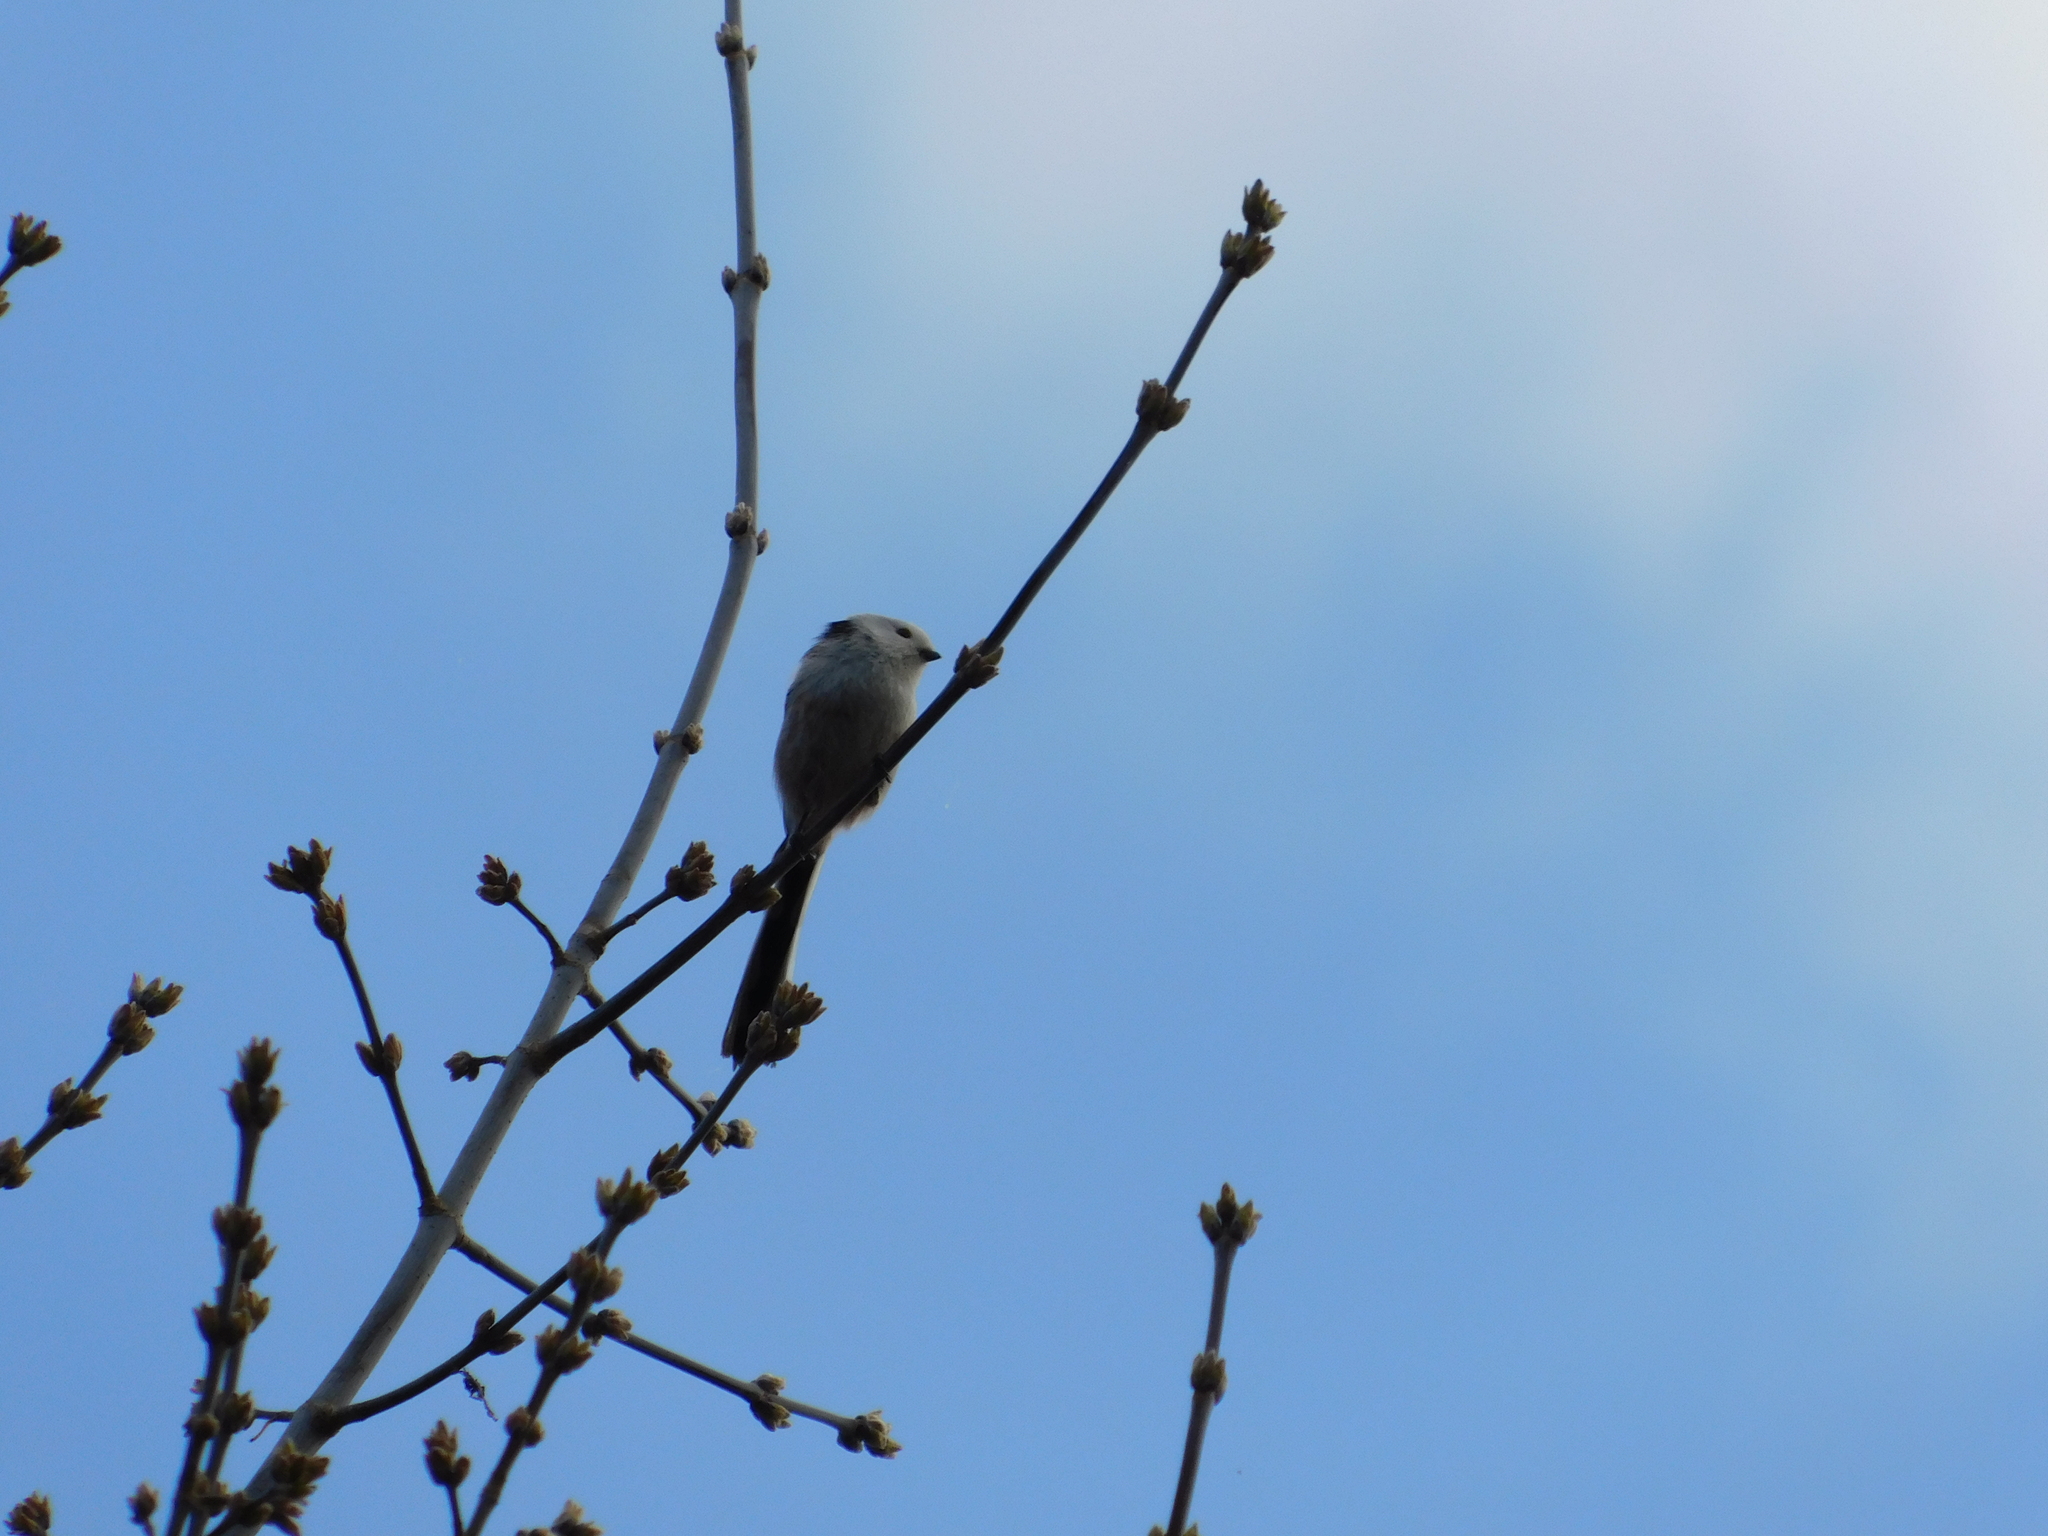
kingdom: Animalia
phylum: Chordata
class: Aves
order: Passeriformes
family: Aegithalidae
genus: Aegithalos
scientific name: Aegithalos caudatus
